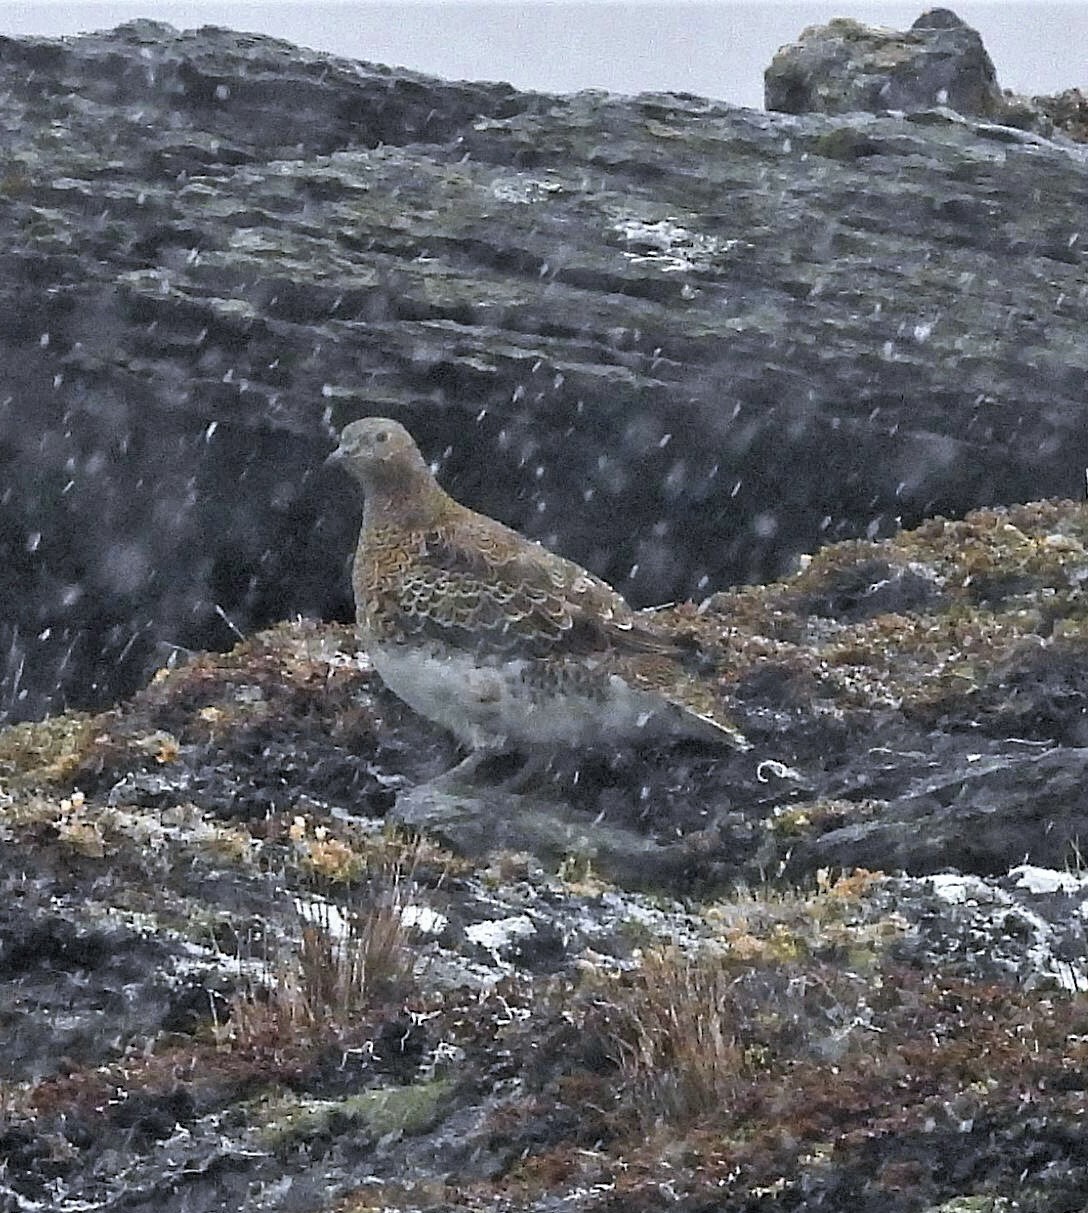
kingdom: Animalia
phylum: Chordata
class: Aves
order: Charadriiformes
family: Thinocoridae
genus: Attagis
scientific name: Attagis malouinus
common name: White-bellied seedsnipe
